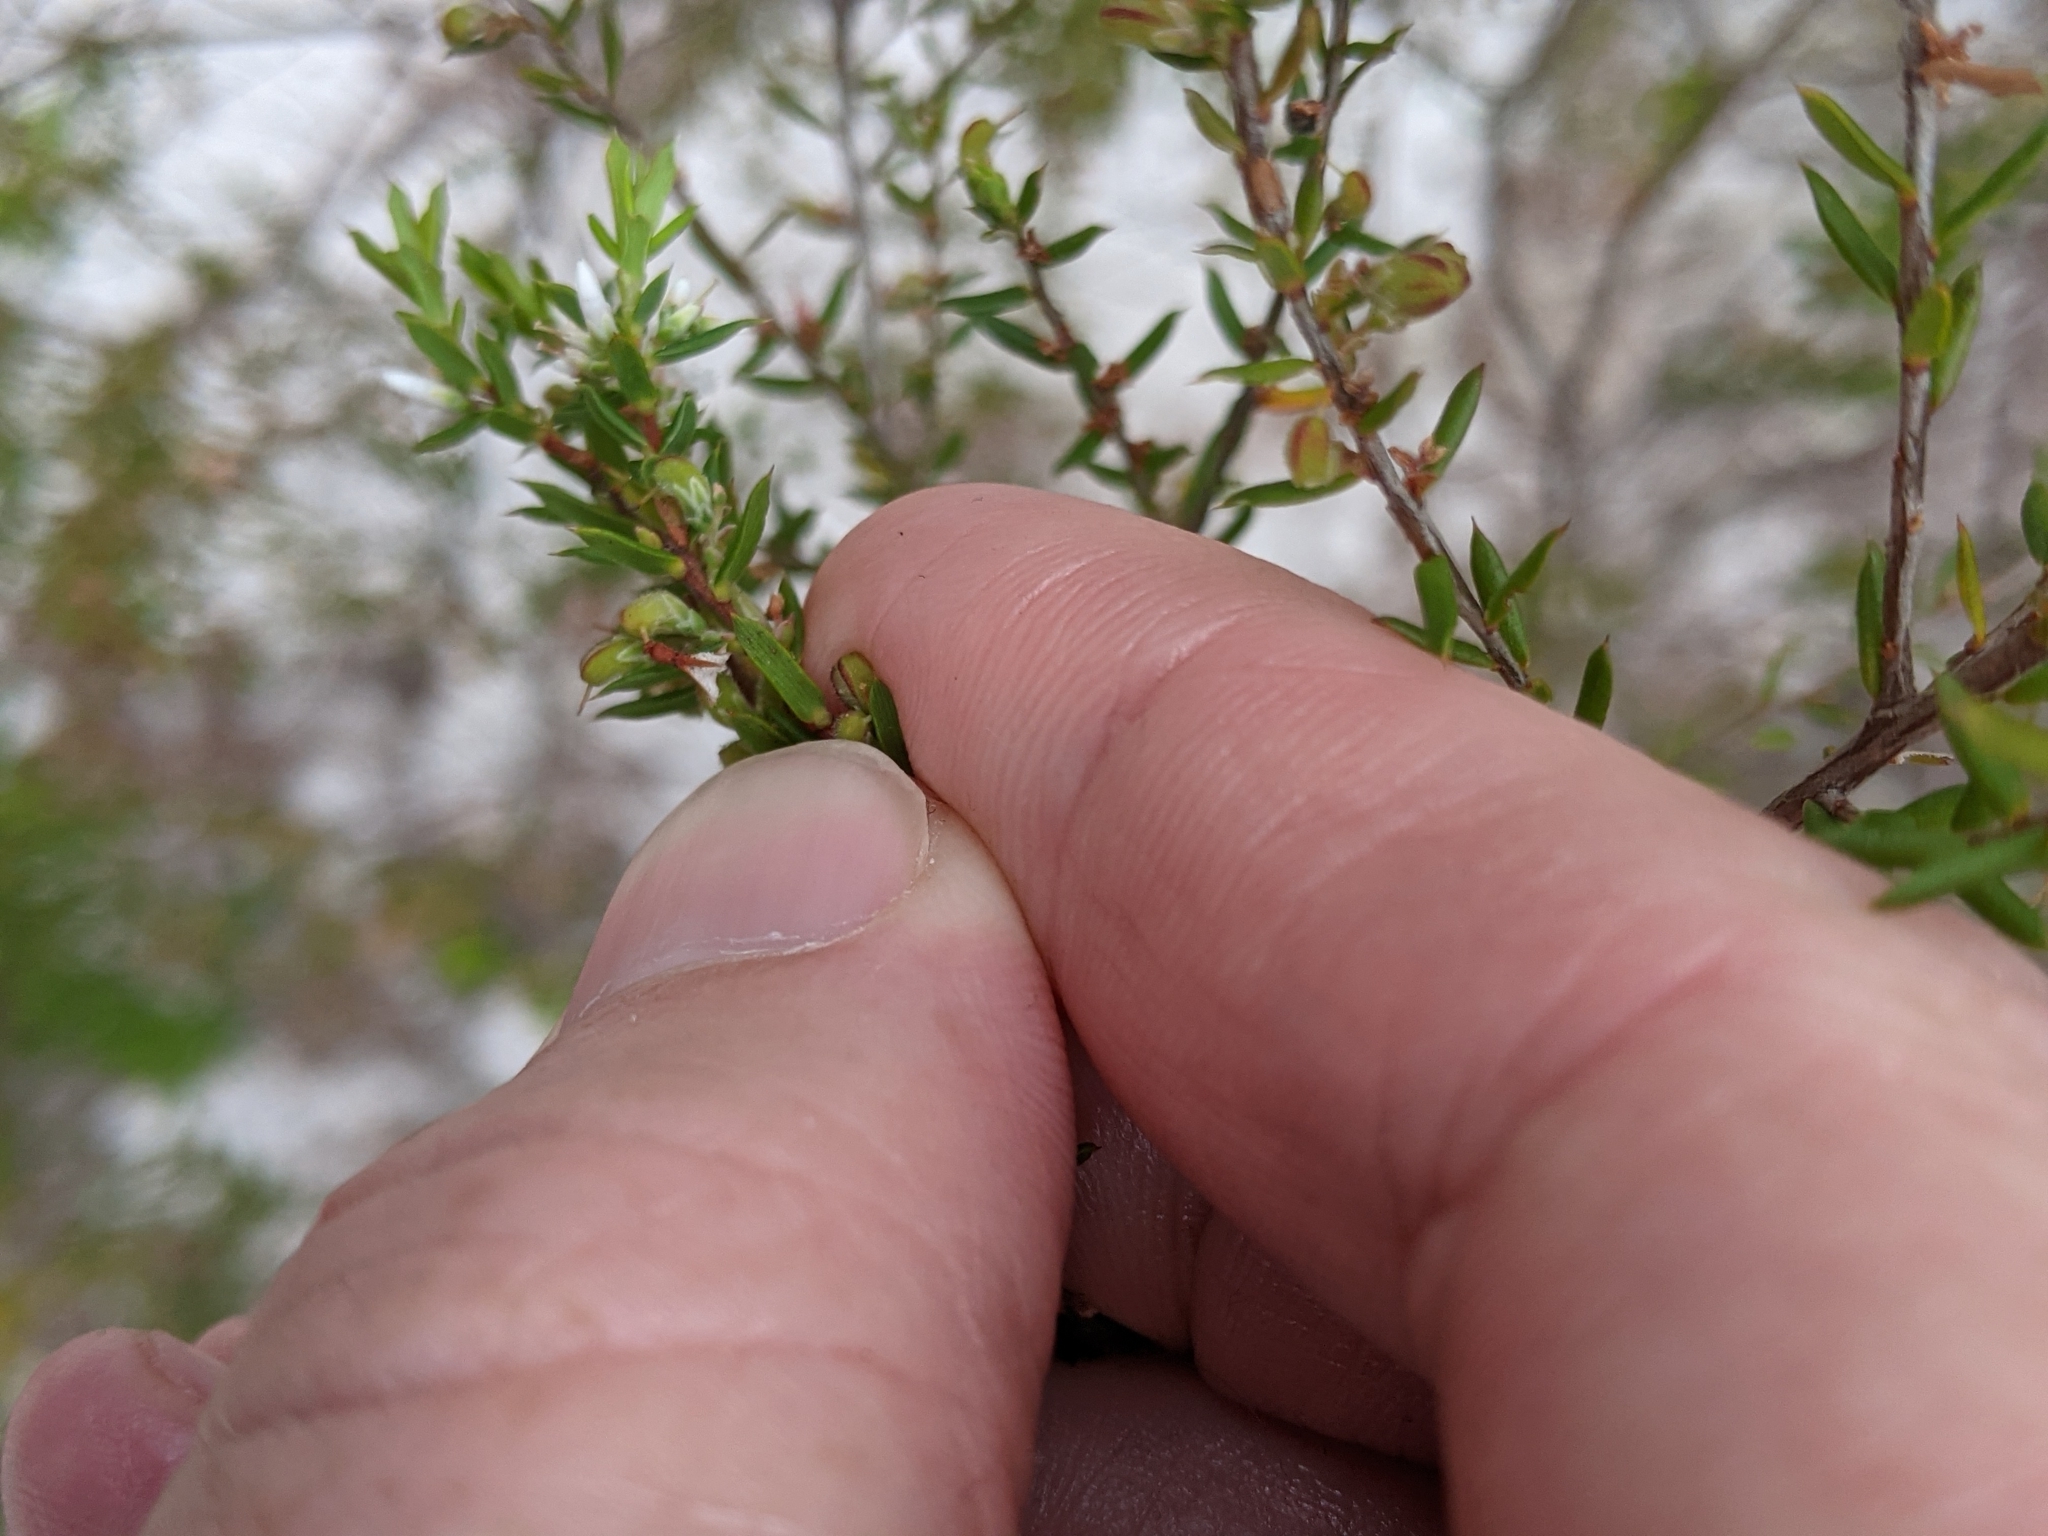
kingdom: Plantae
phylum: Tracheophyta
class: Magnoliopsida
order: Ericales
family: Ericaceae
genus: Styphelia
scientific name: Styphelia ericoides
